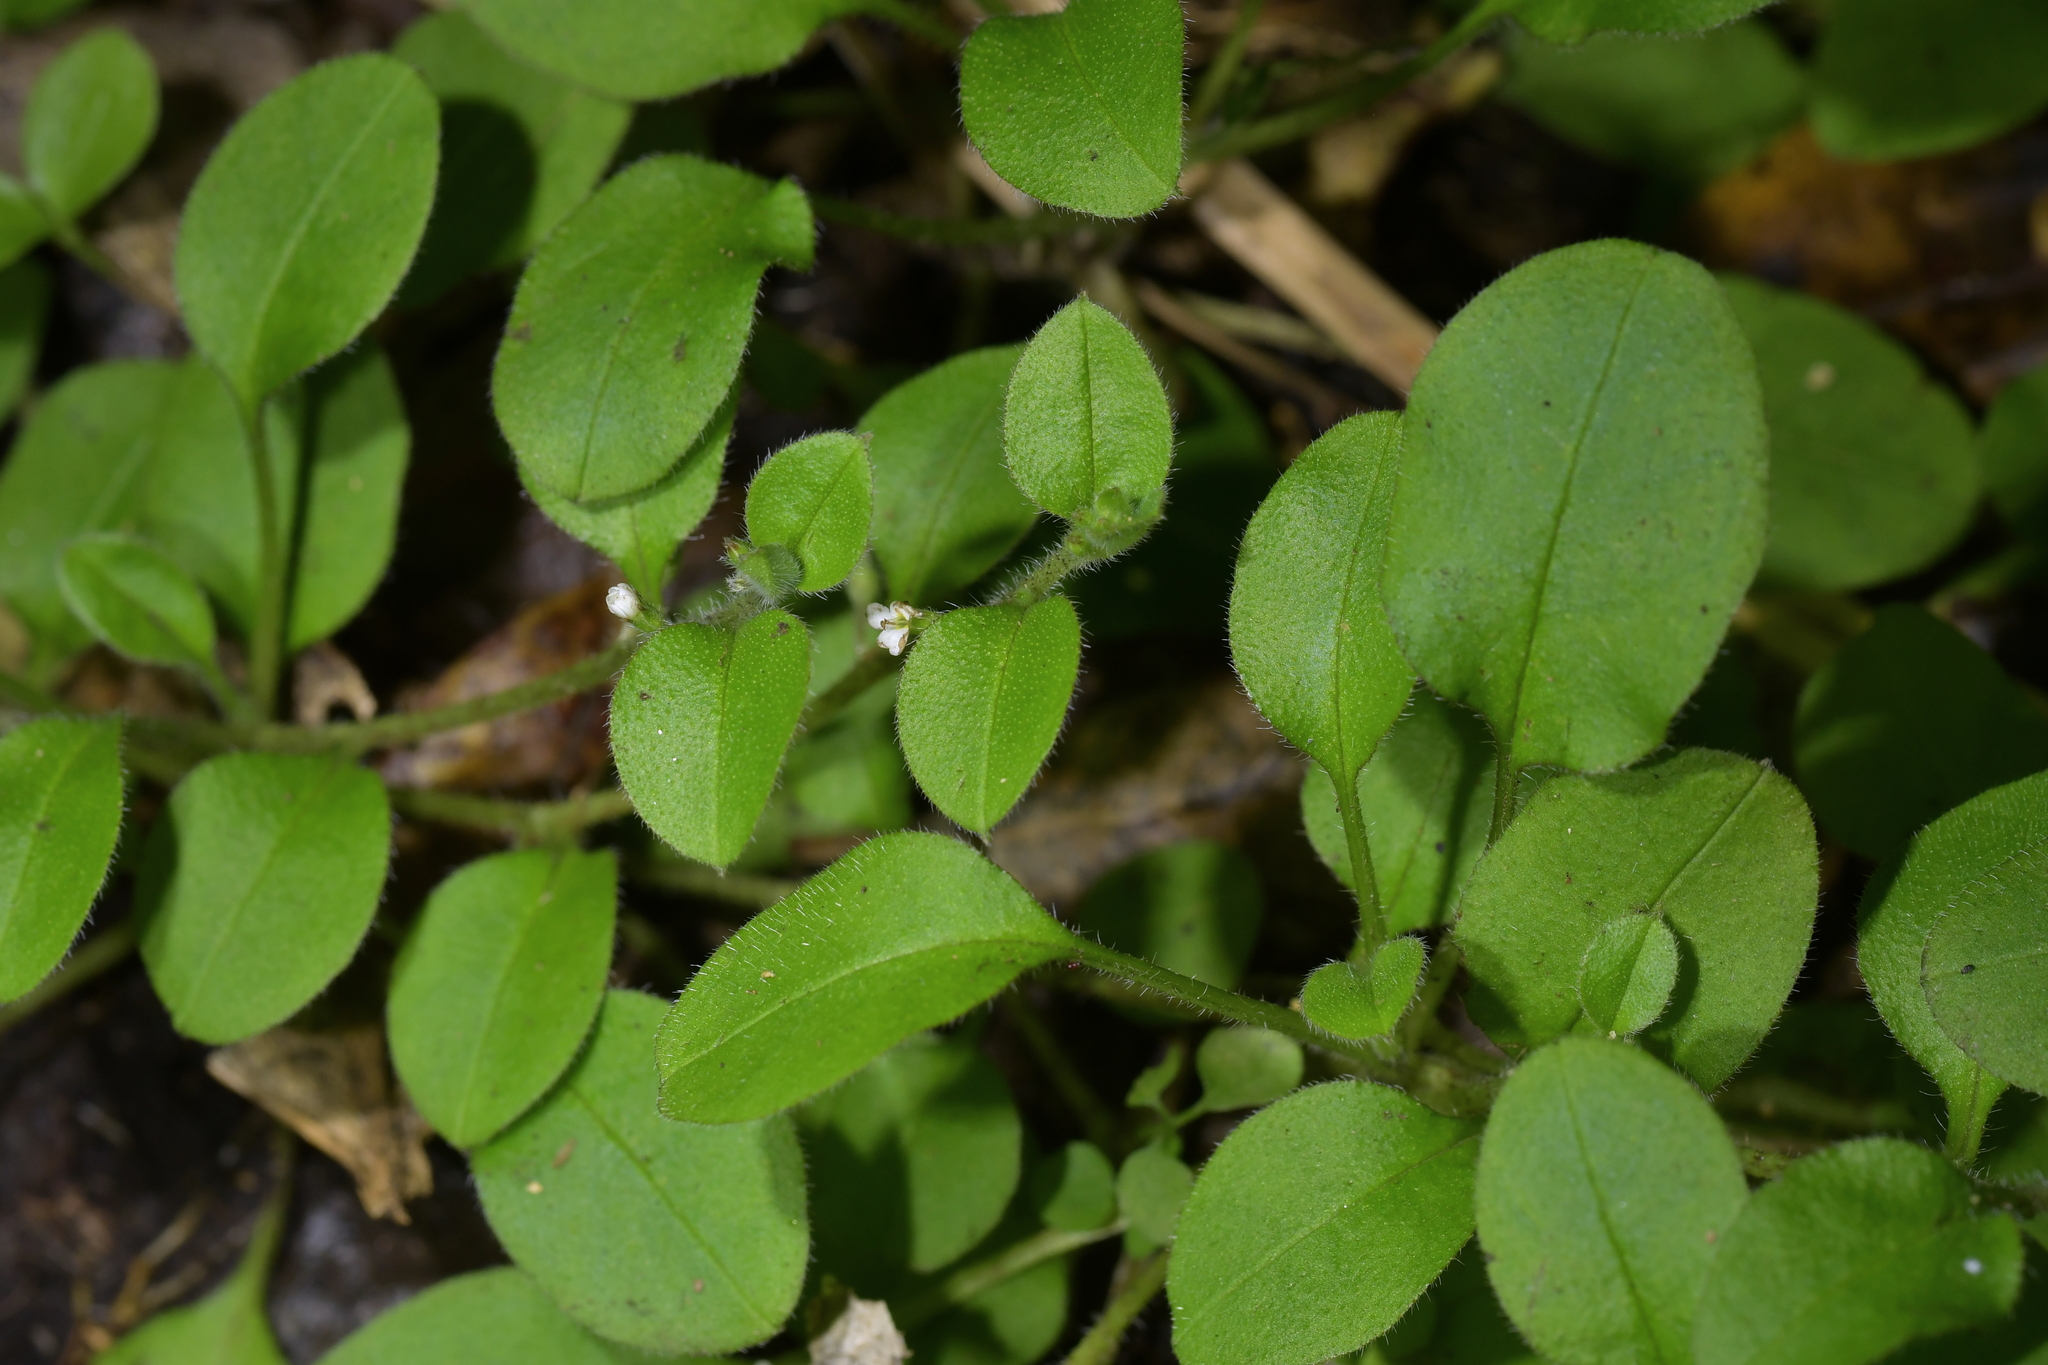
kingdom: Plantae
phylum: Tracheophyta
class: Magnoliopsida
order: Boraginales
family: Boraginaceae
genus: Myosotis
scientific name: Myosotis spathulata
